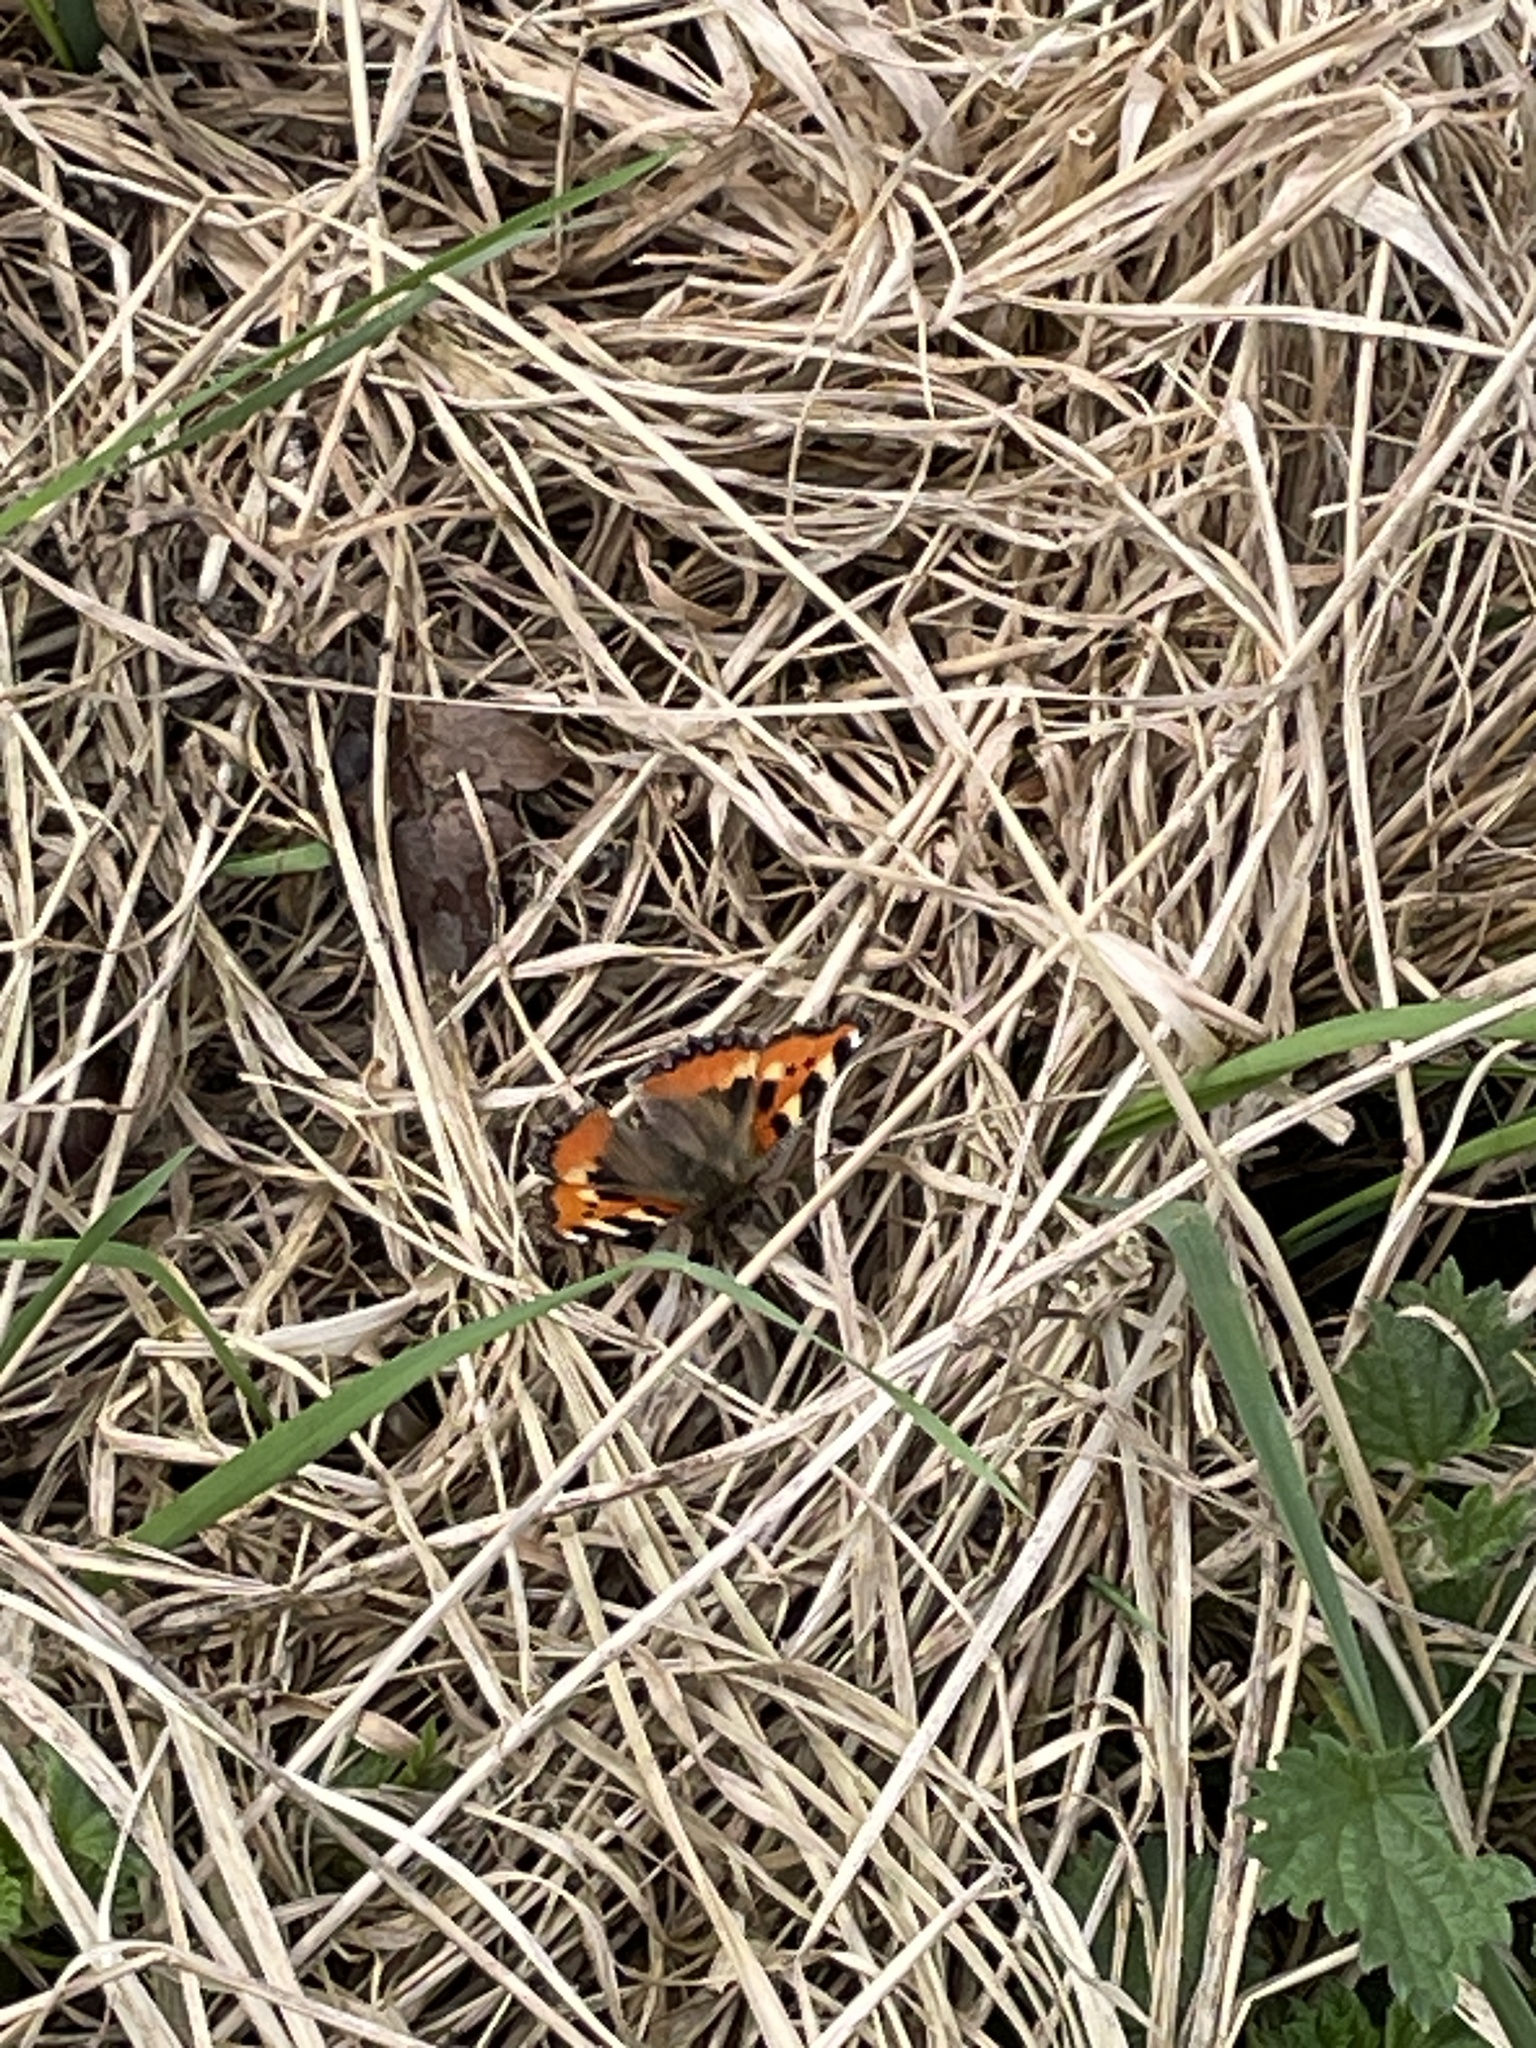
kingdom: Animalia
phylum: Arthropoda
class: Insecta
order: Lepidoptera
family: Nymphalidae
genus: Aglais
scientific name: Aglais urticae
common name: Small tortoiseshell
